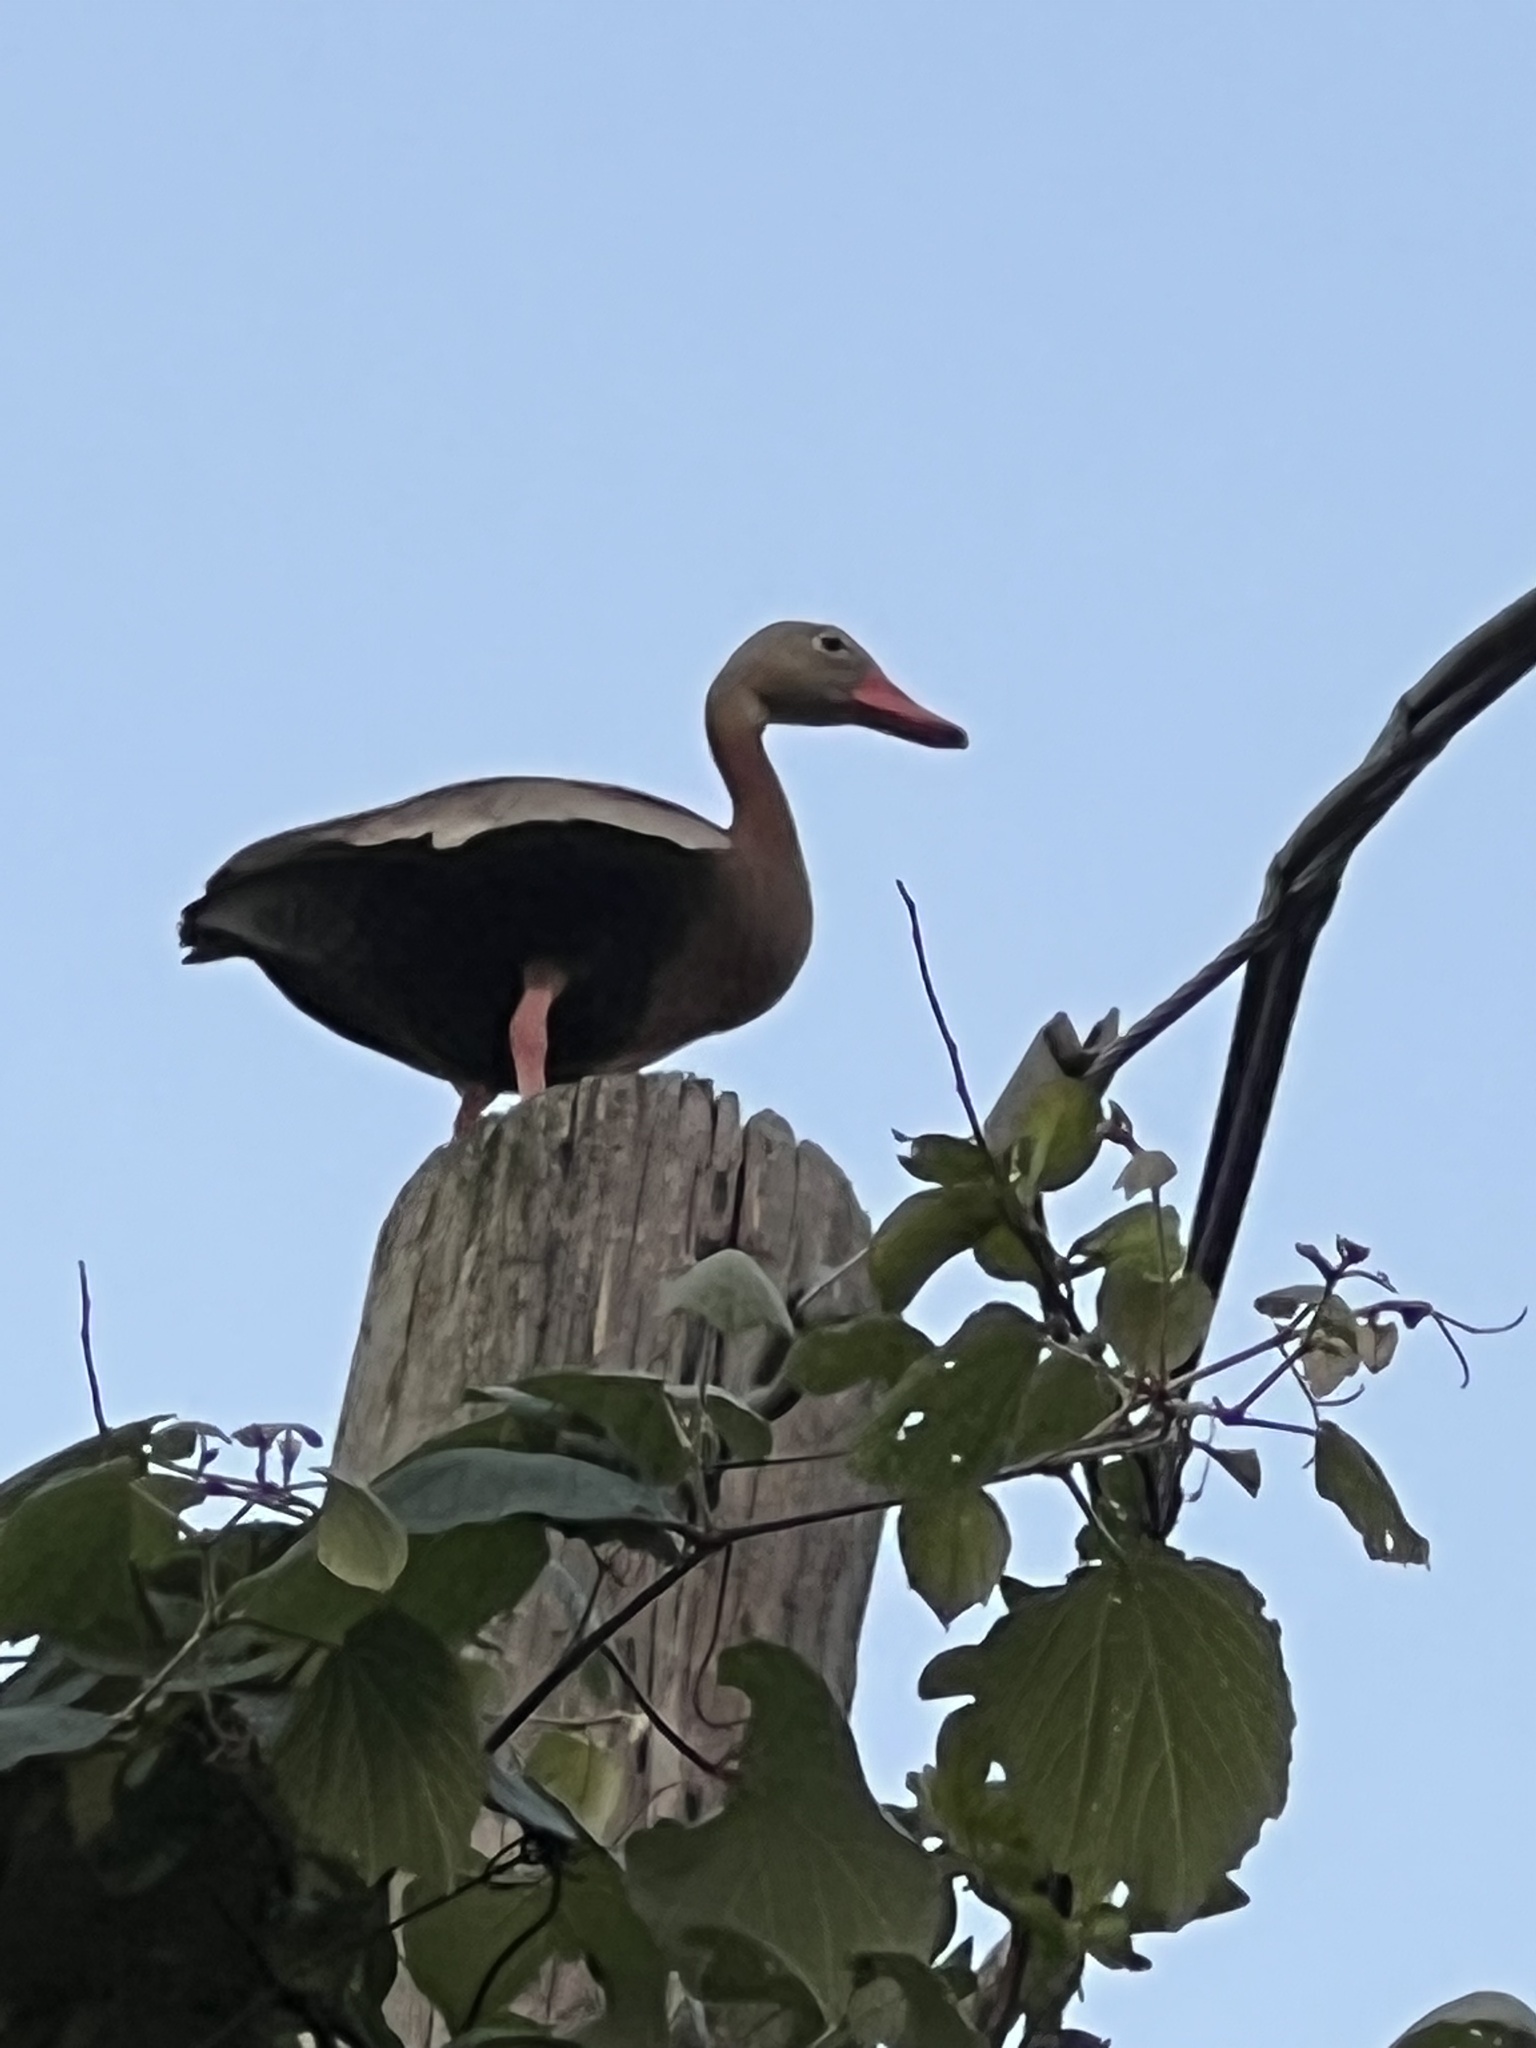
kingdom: Animalia
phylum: Chordata
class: Aves
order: Anseriformes
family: Anatidae
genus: Dendrocygna
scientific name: Dendrocygna autumnalis
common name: Black-bellied whistling duck
